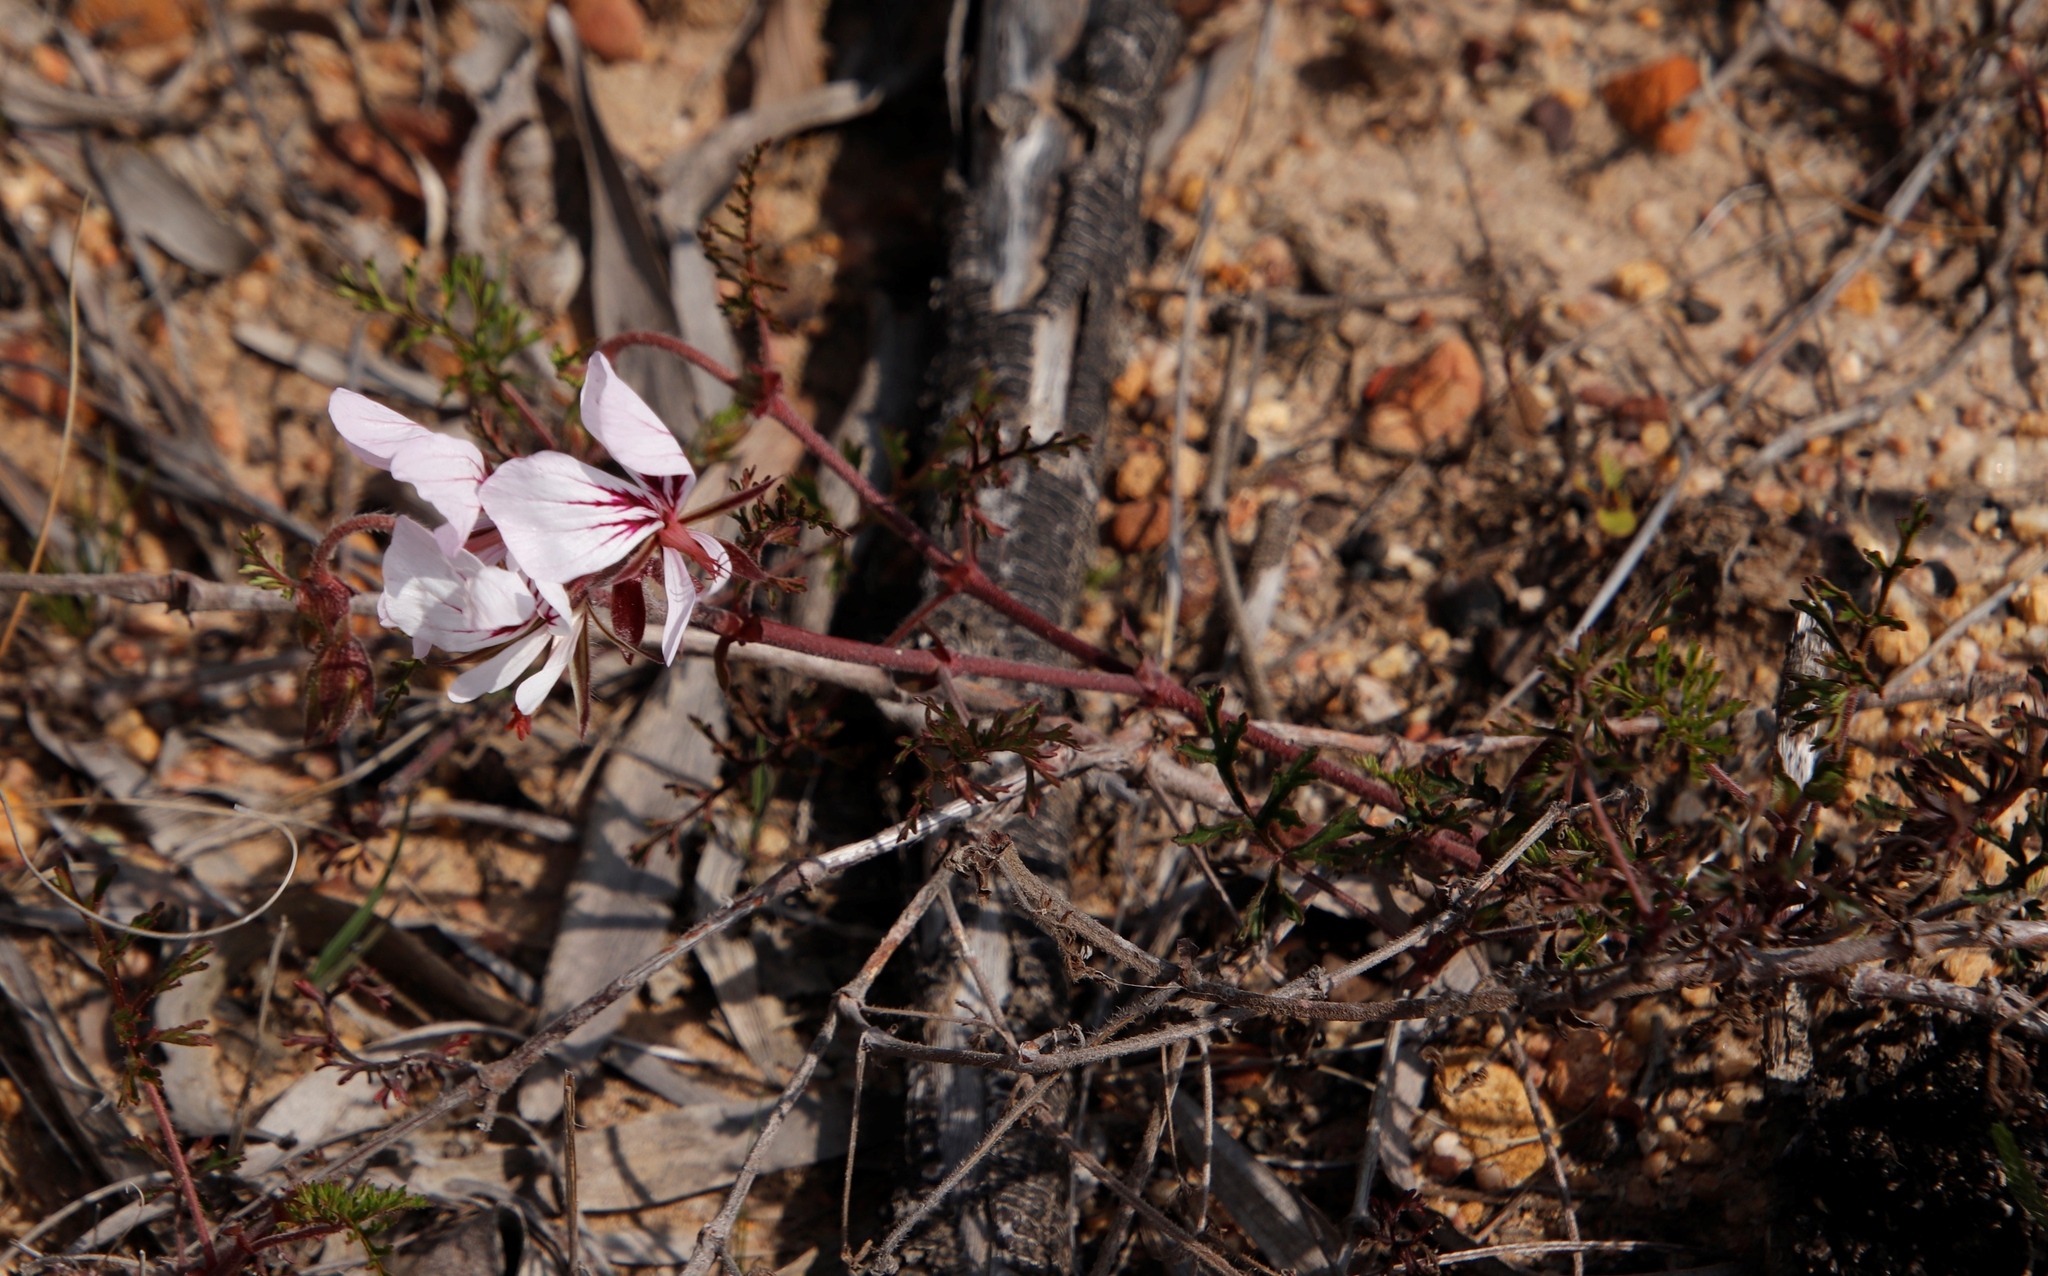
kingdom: Plantae
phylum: Tracheophyta
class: Magnoliopsida
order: Geraniales
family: Geraniaceae
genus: Pelargonium
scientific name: Pelargonium myrrhifolium
